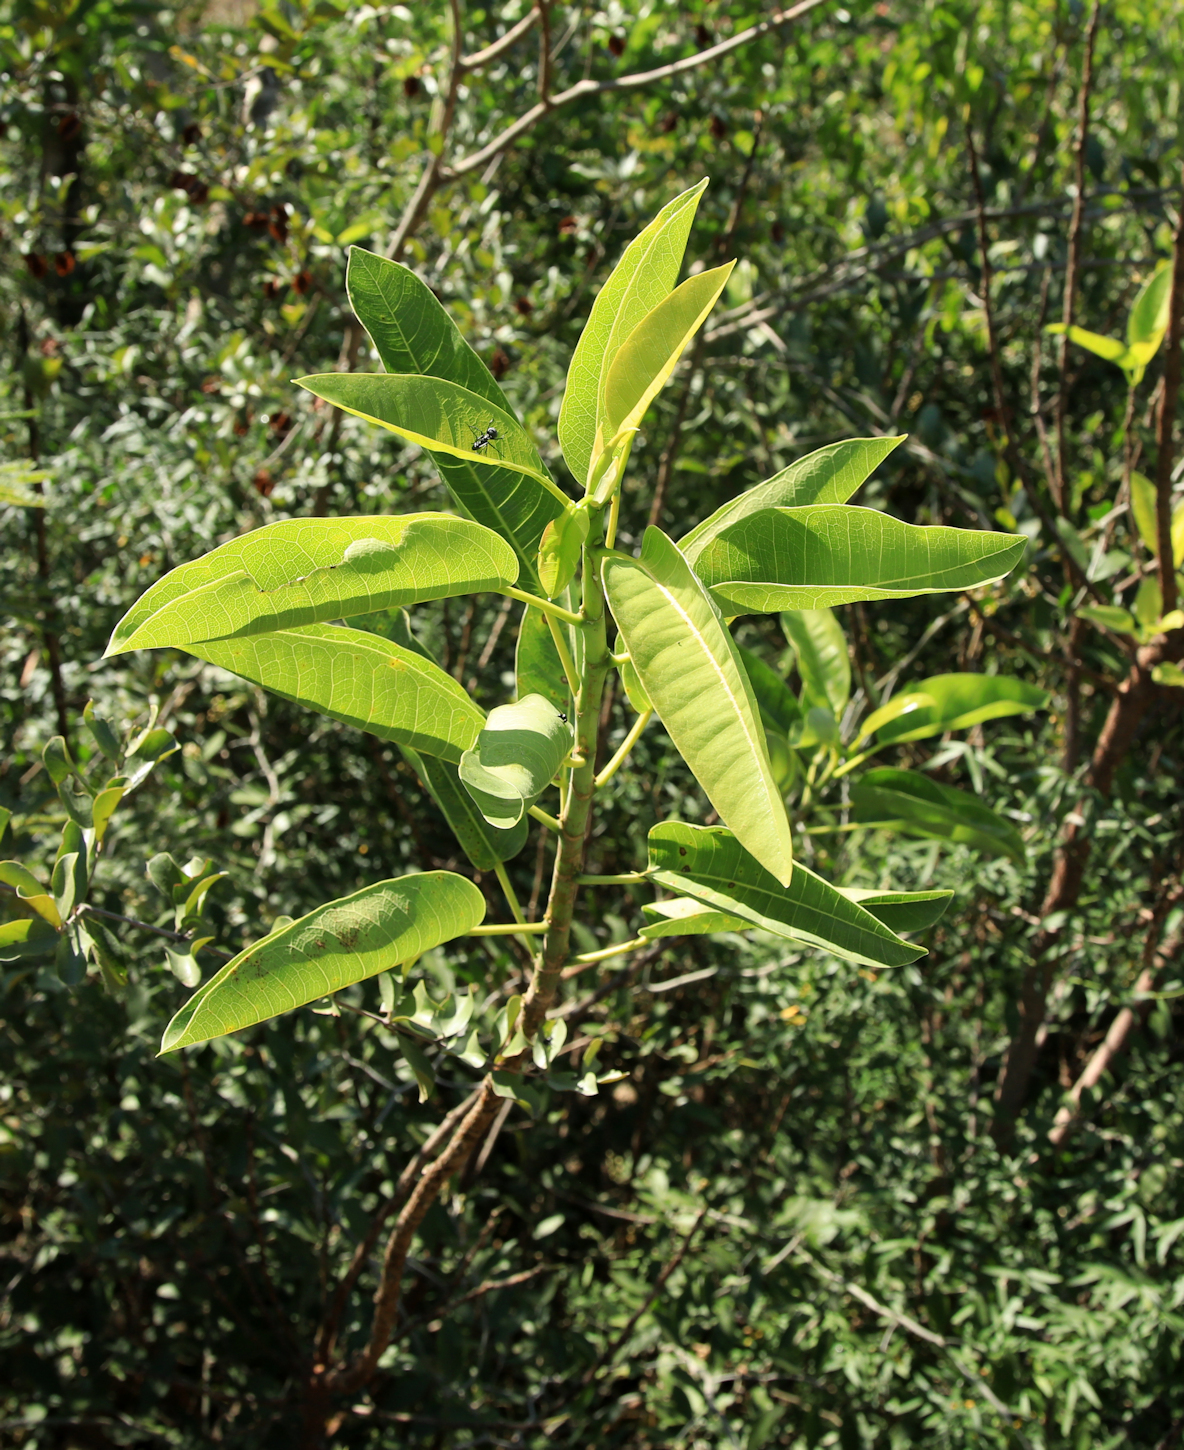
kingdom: Plantae
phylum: Tracheophyta
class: Magnoliopsida
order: Rosales
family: Moraceae
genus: Ficus
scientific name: Ficus salicifolia
